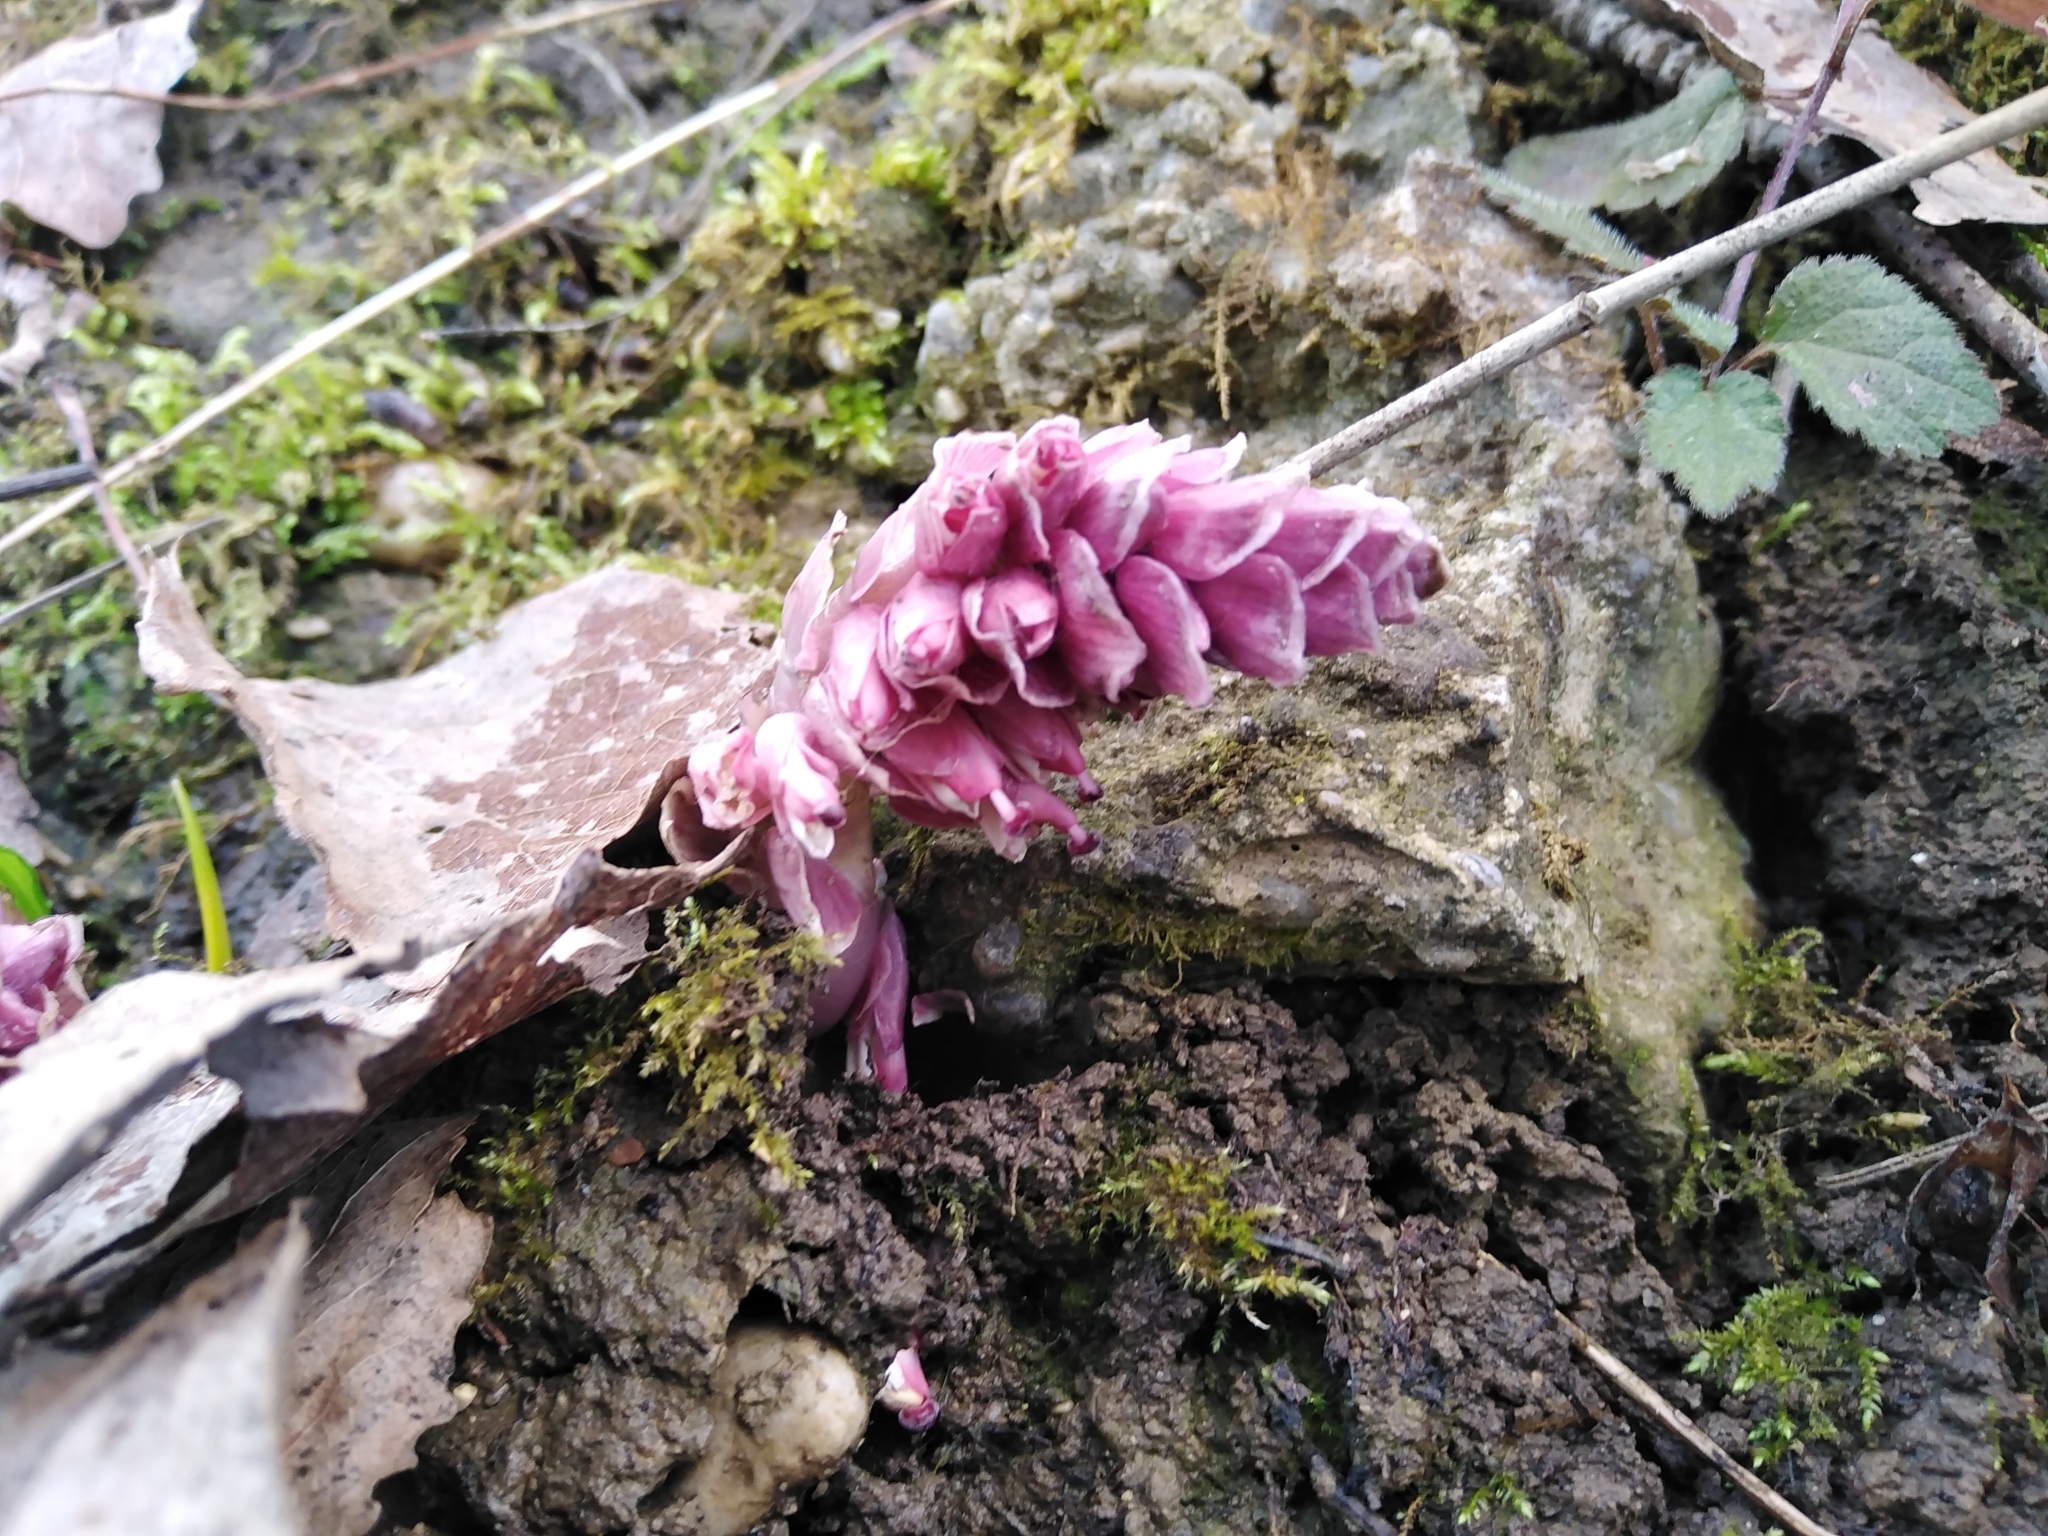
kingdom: Plantae
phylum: Tracheophyta
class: Magnoliopsida
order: Lamiales
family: Orobanchaceae
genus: Lathraea
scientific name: Lathraea squamaria
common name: Toothwort
